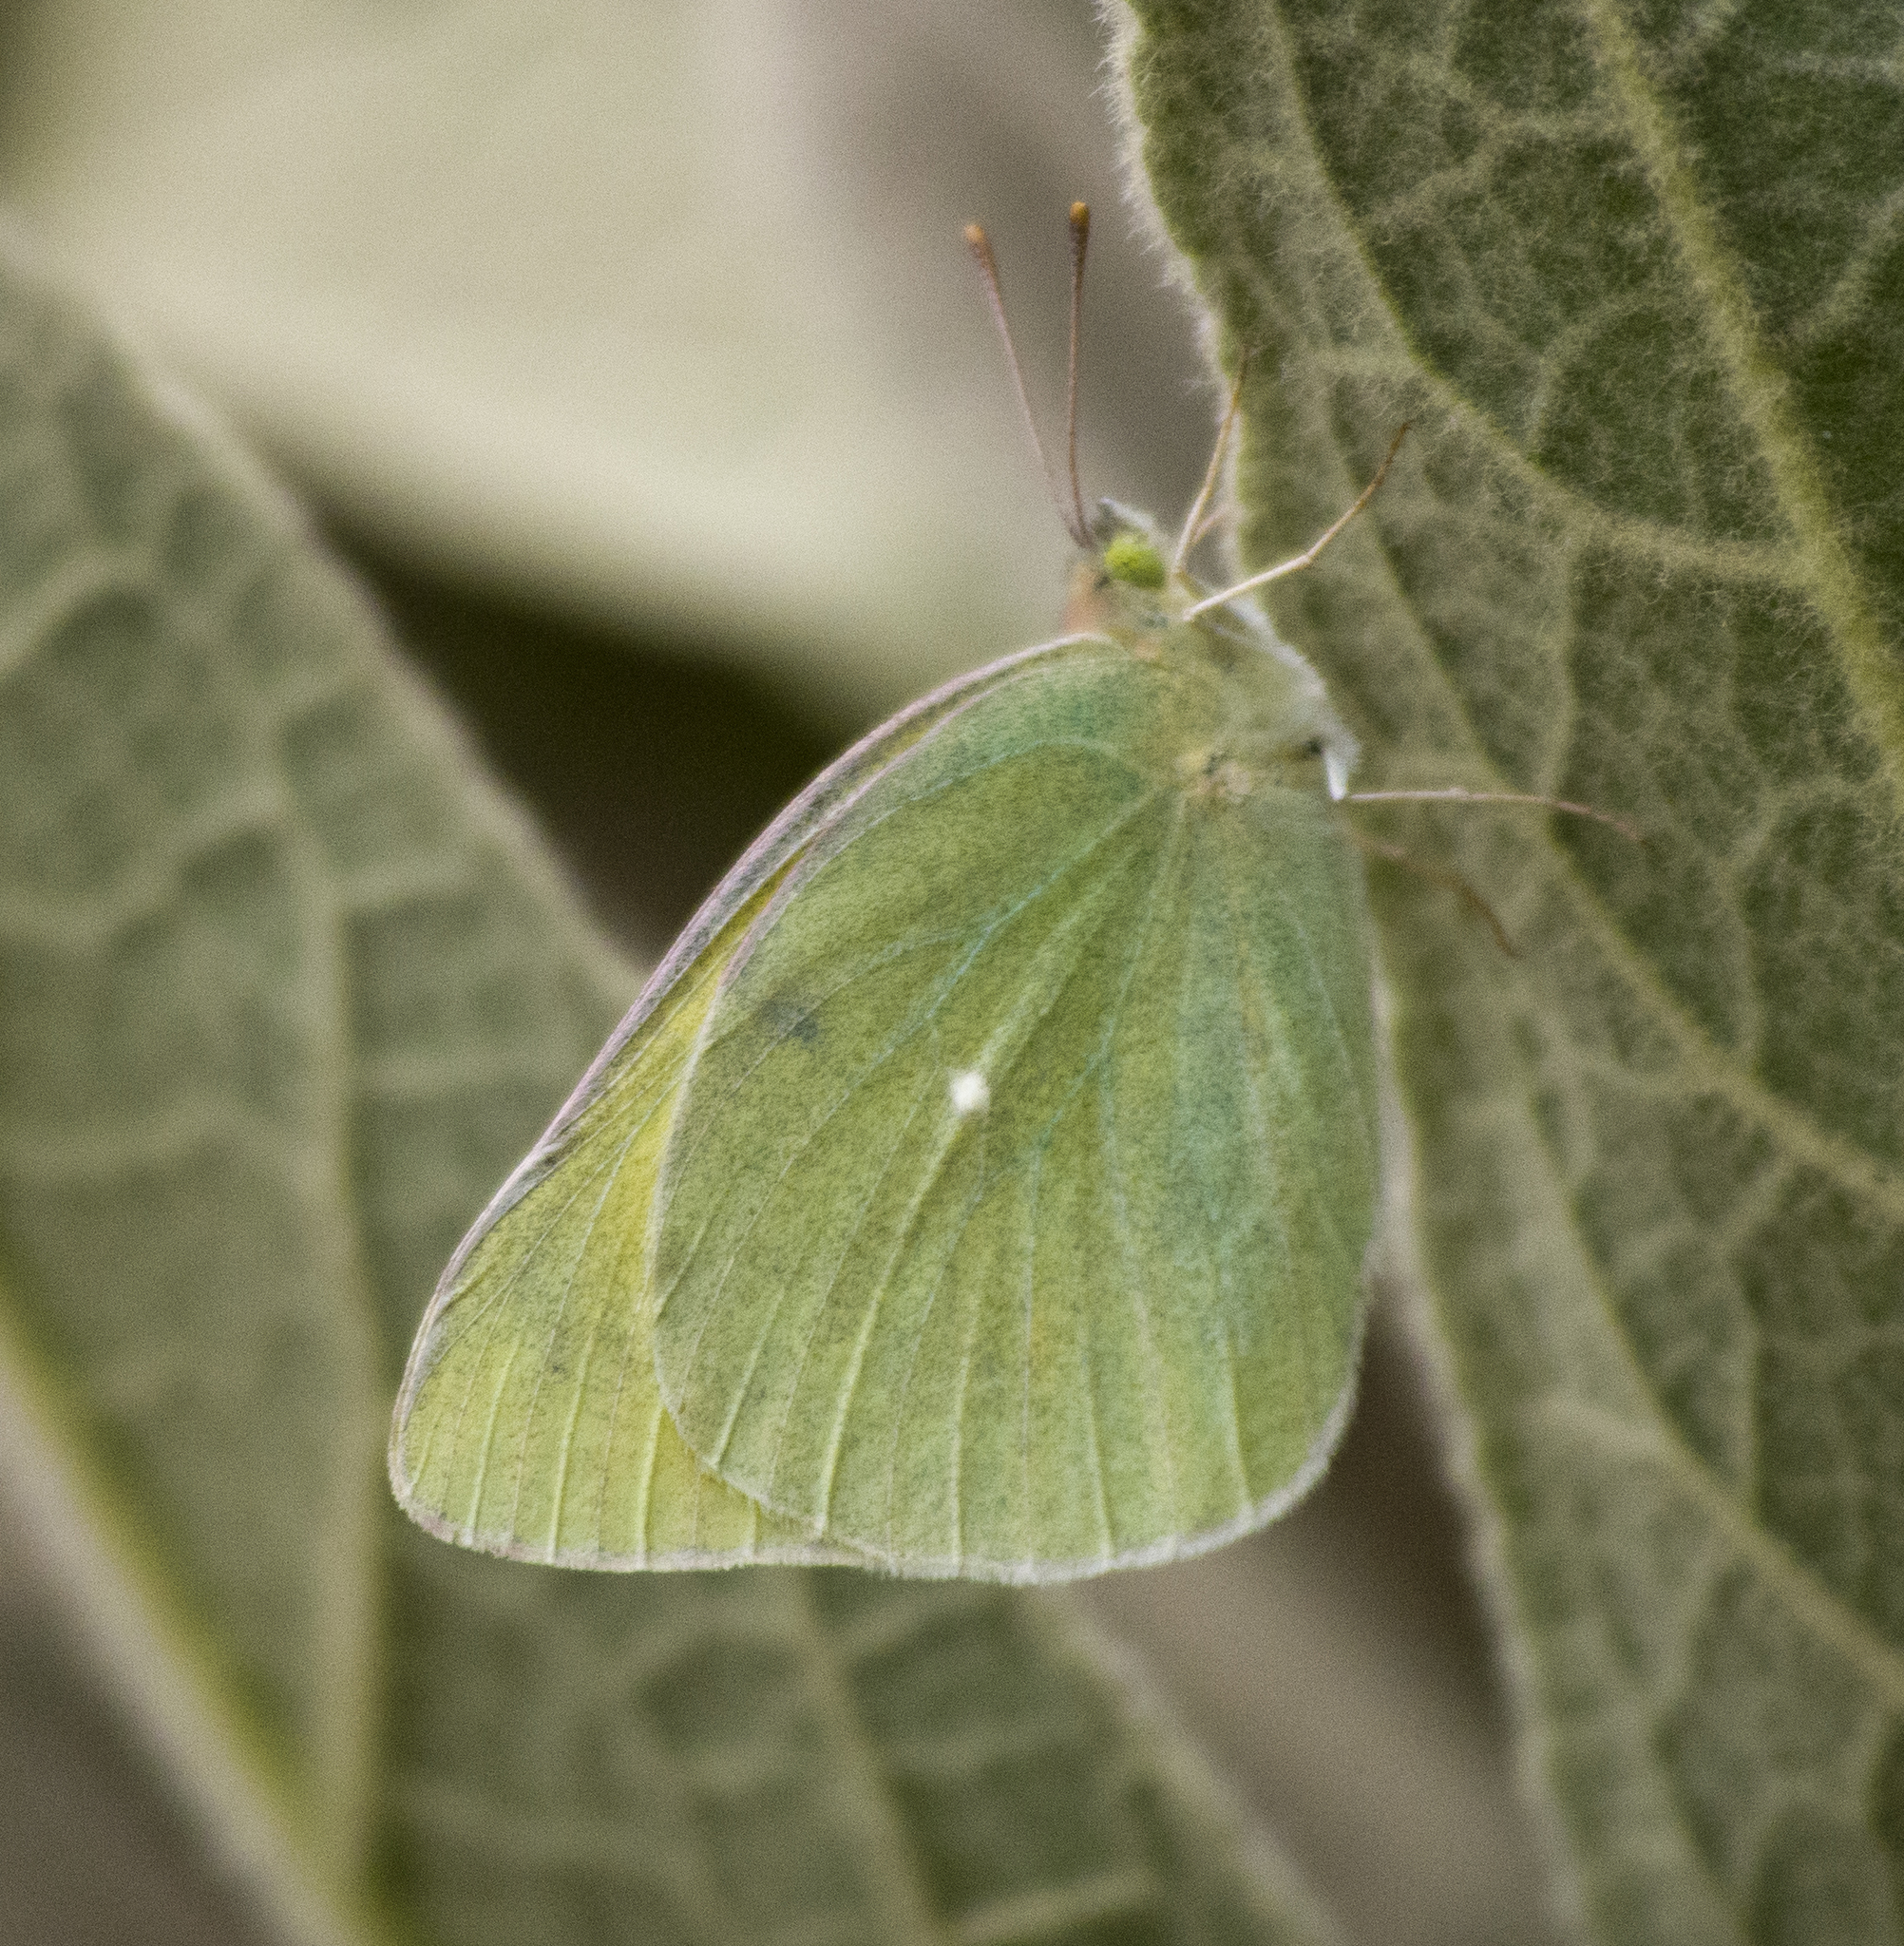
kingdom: Animalia
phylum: Arthropoda
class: Insecta
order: Lepidoptera
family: Pieridae
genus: Colias
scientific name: Colias alexandra
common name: Alexandra sulphur
